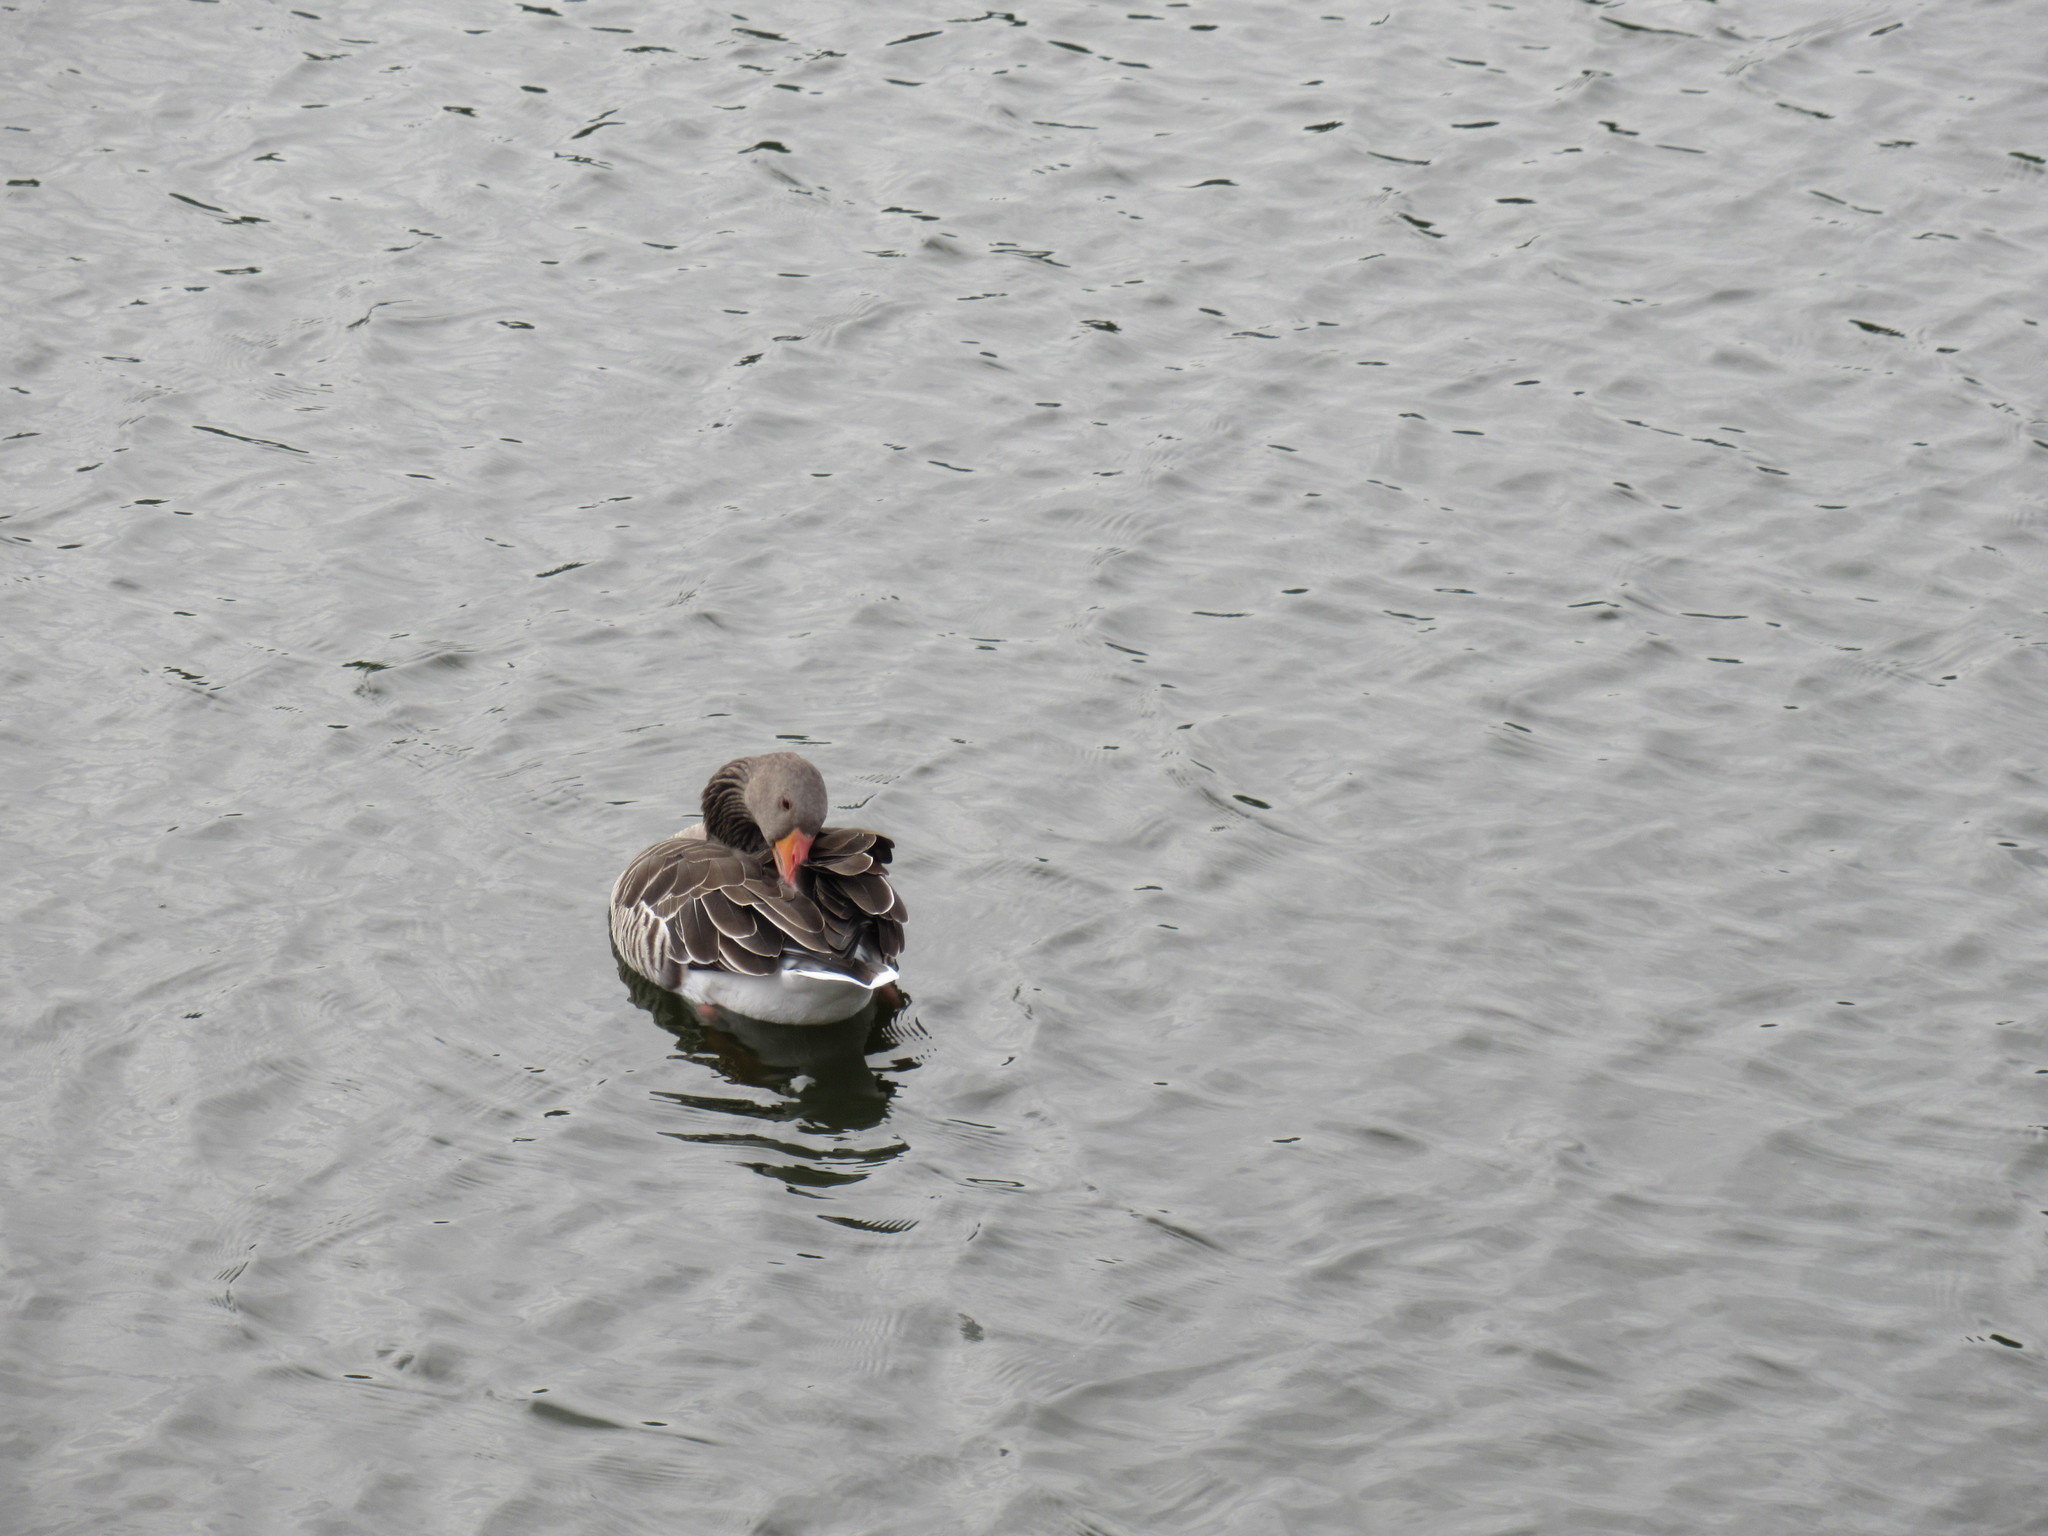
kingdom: Animalia
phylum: Chordata
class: Aves
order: Anseriformes
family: Anatidae
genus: Anser
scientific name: Anser anser
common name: Greylag goose
